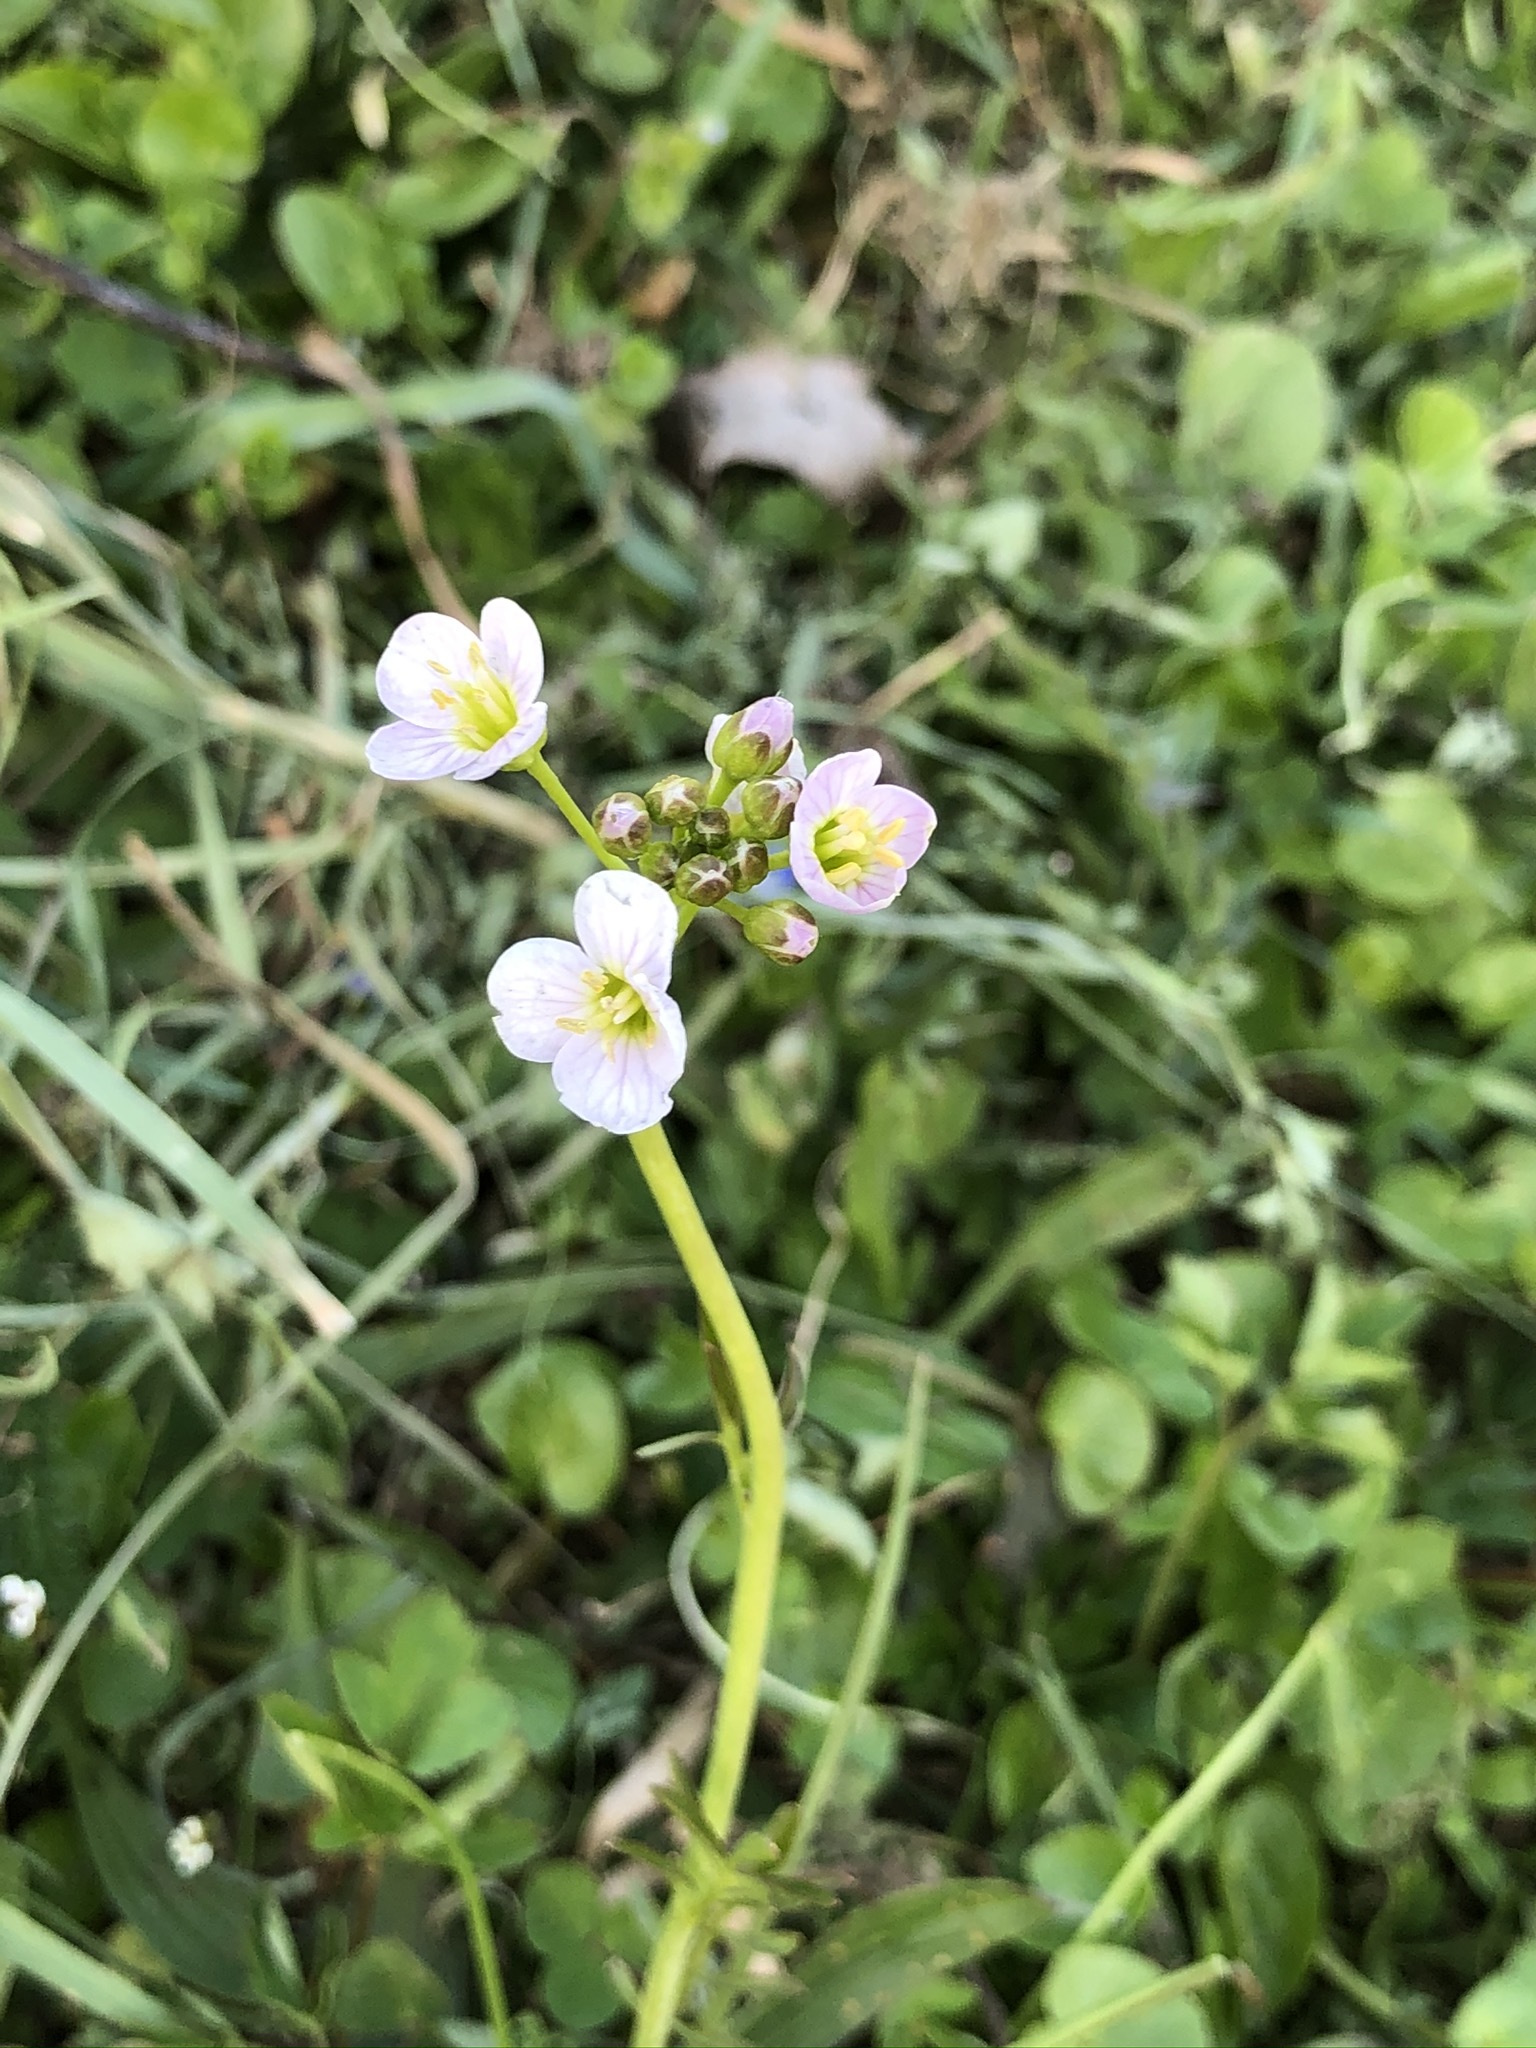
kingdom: Plantae
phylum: Tracheophyta
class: Magnoliopsida
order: Brassicales
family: Brassicaceae
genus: Cardamine
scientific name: Cardamine pratensis
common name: Cuckoo flower
